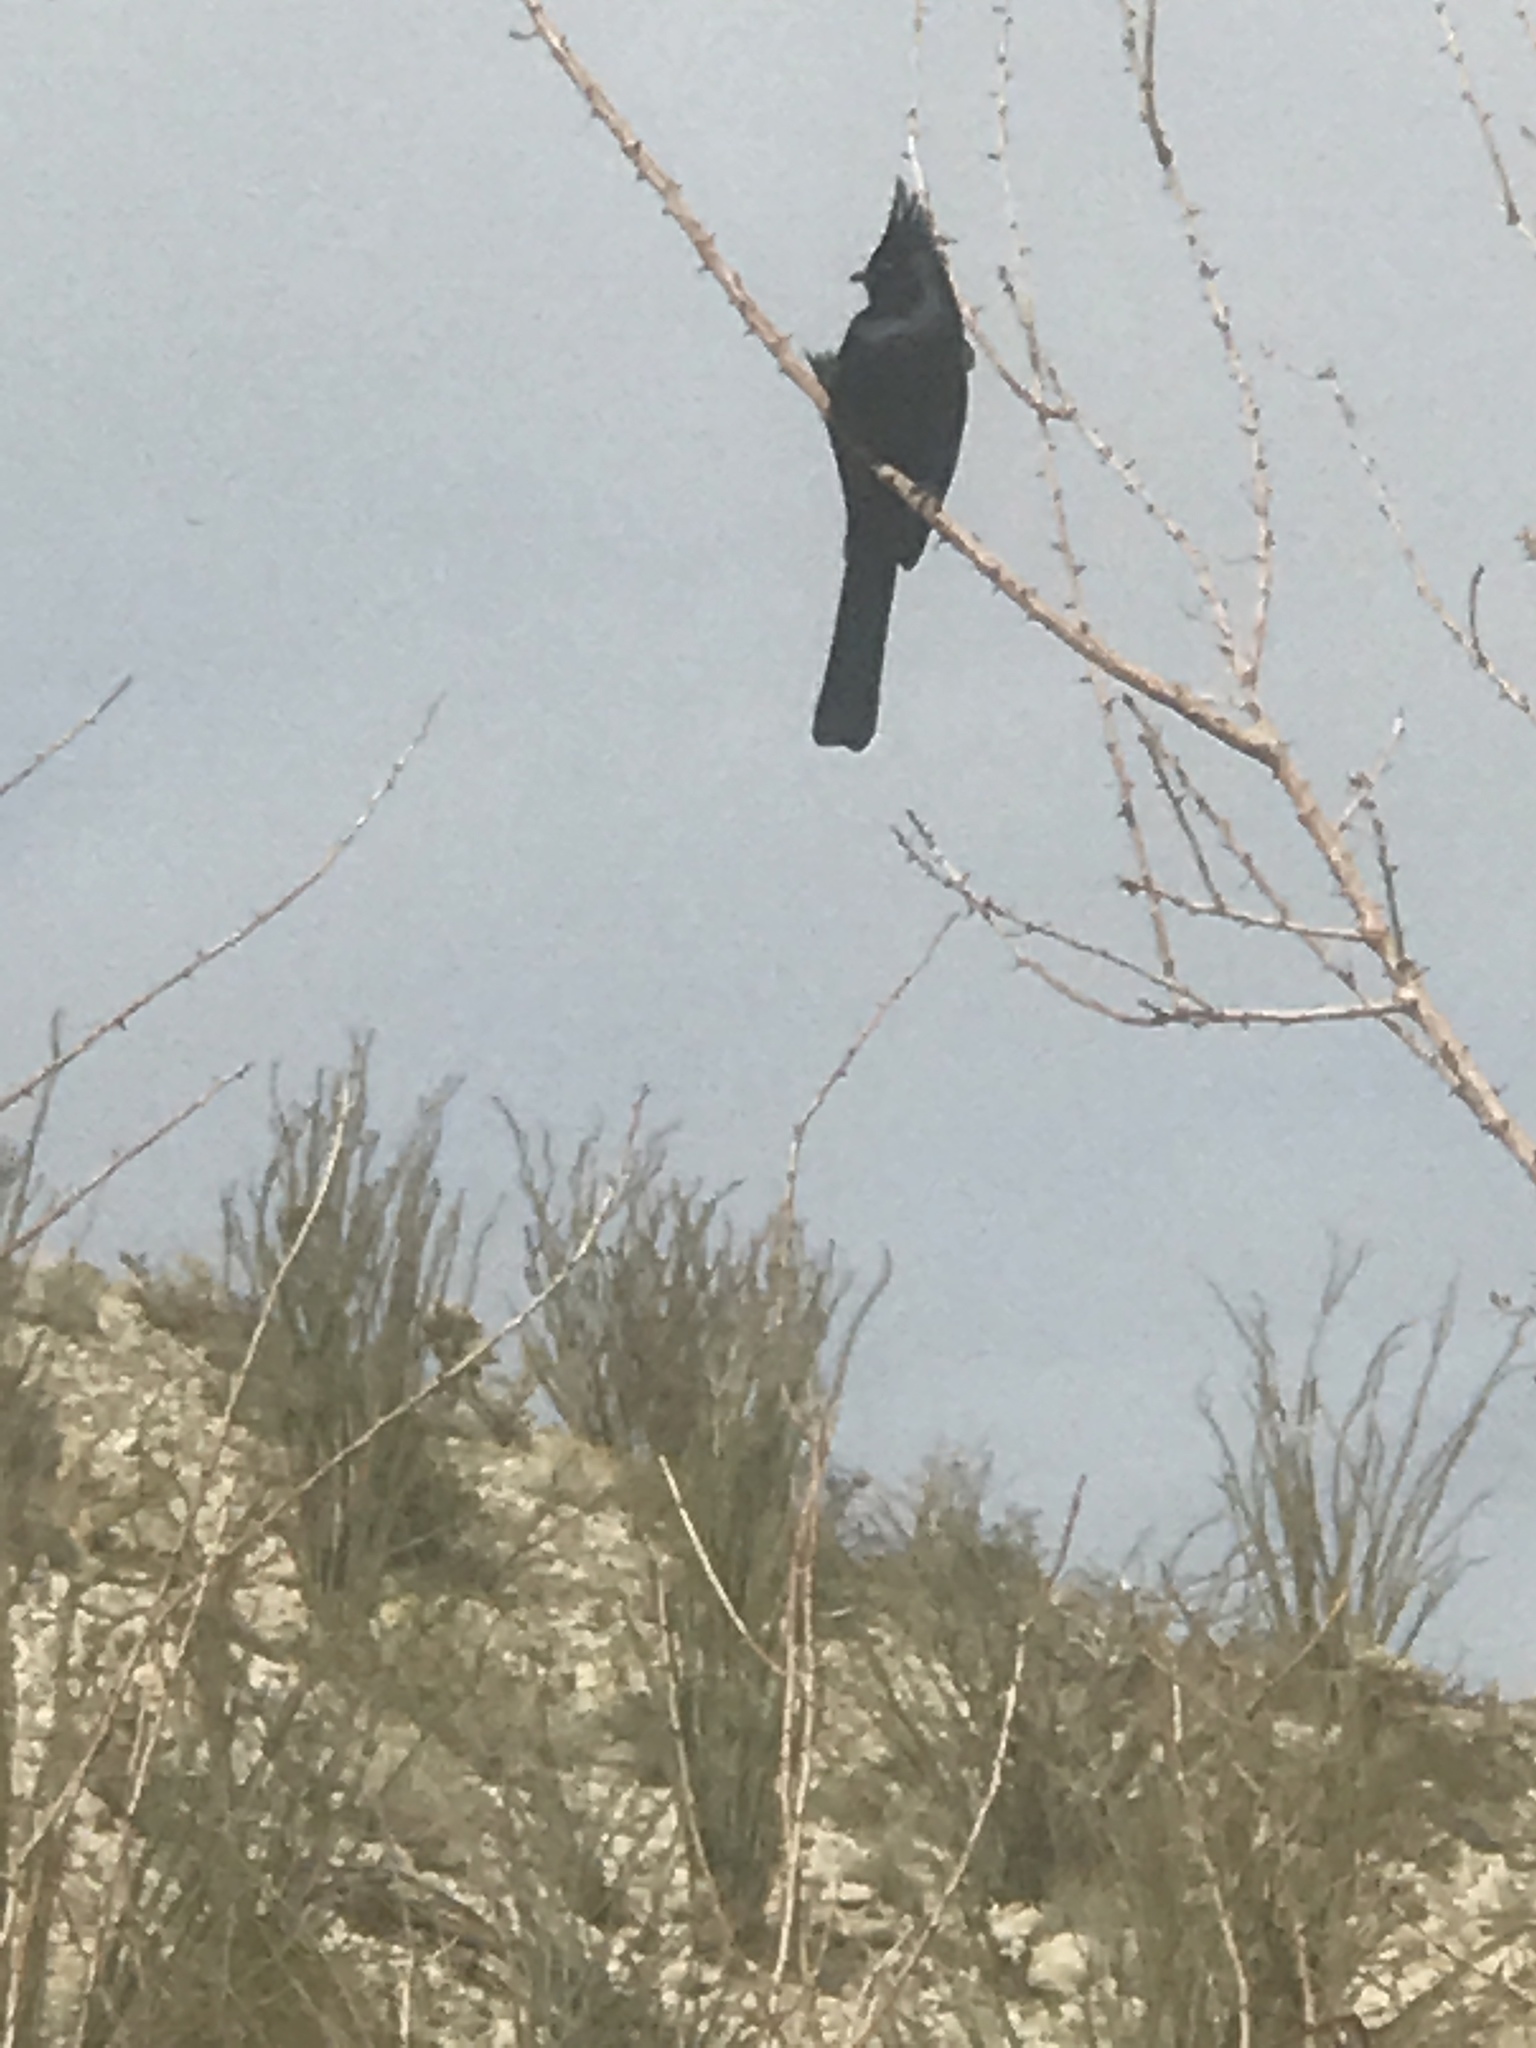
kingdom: Animalia
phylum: Chordata
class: Aves
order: Passeriformes
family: Ptilogonatidae
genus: Phainopepla
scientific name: Phainopepla nitens
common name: Phainopepla
